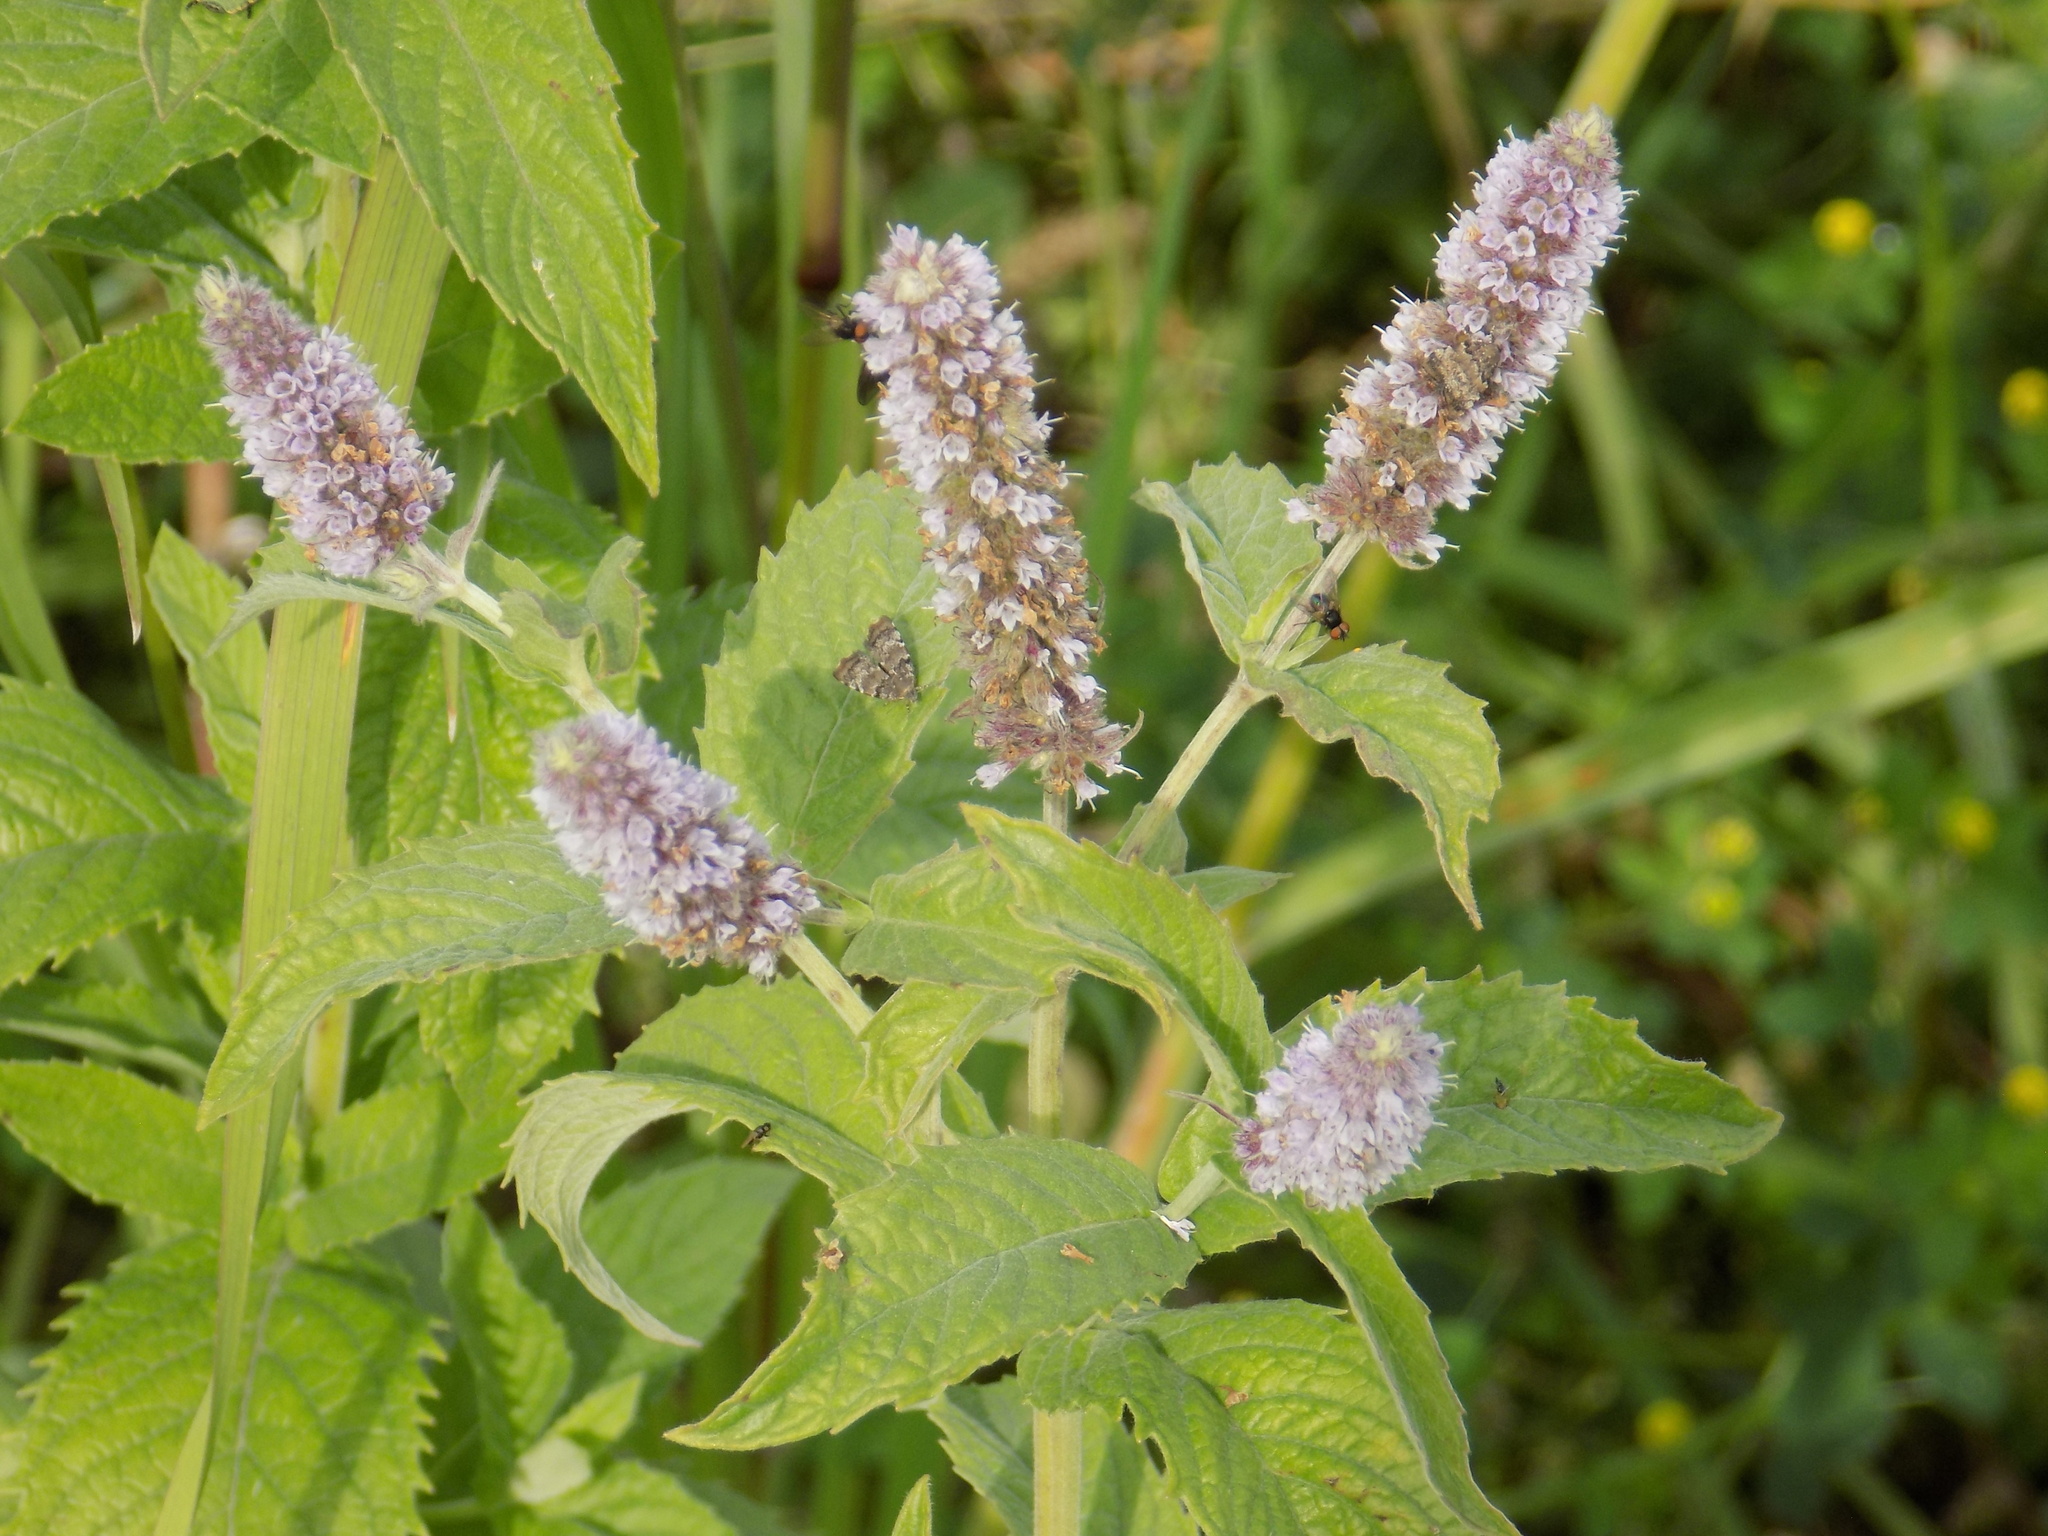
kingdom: Plantae
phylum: Tracheophyta
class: Magnoliopsida
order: Lamiales
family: Lamiaceae
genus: Mentha
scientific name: Mentha longifolia
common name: Horse mint
